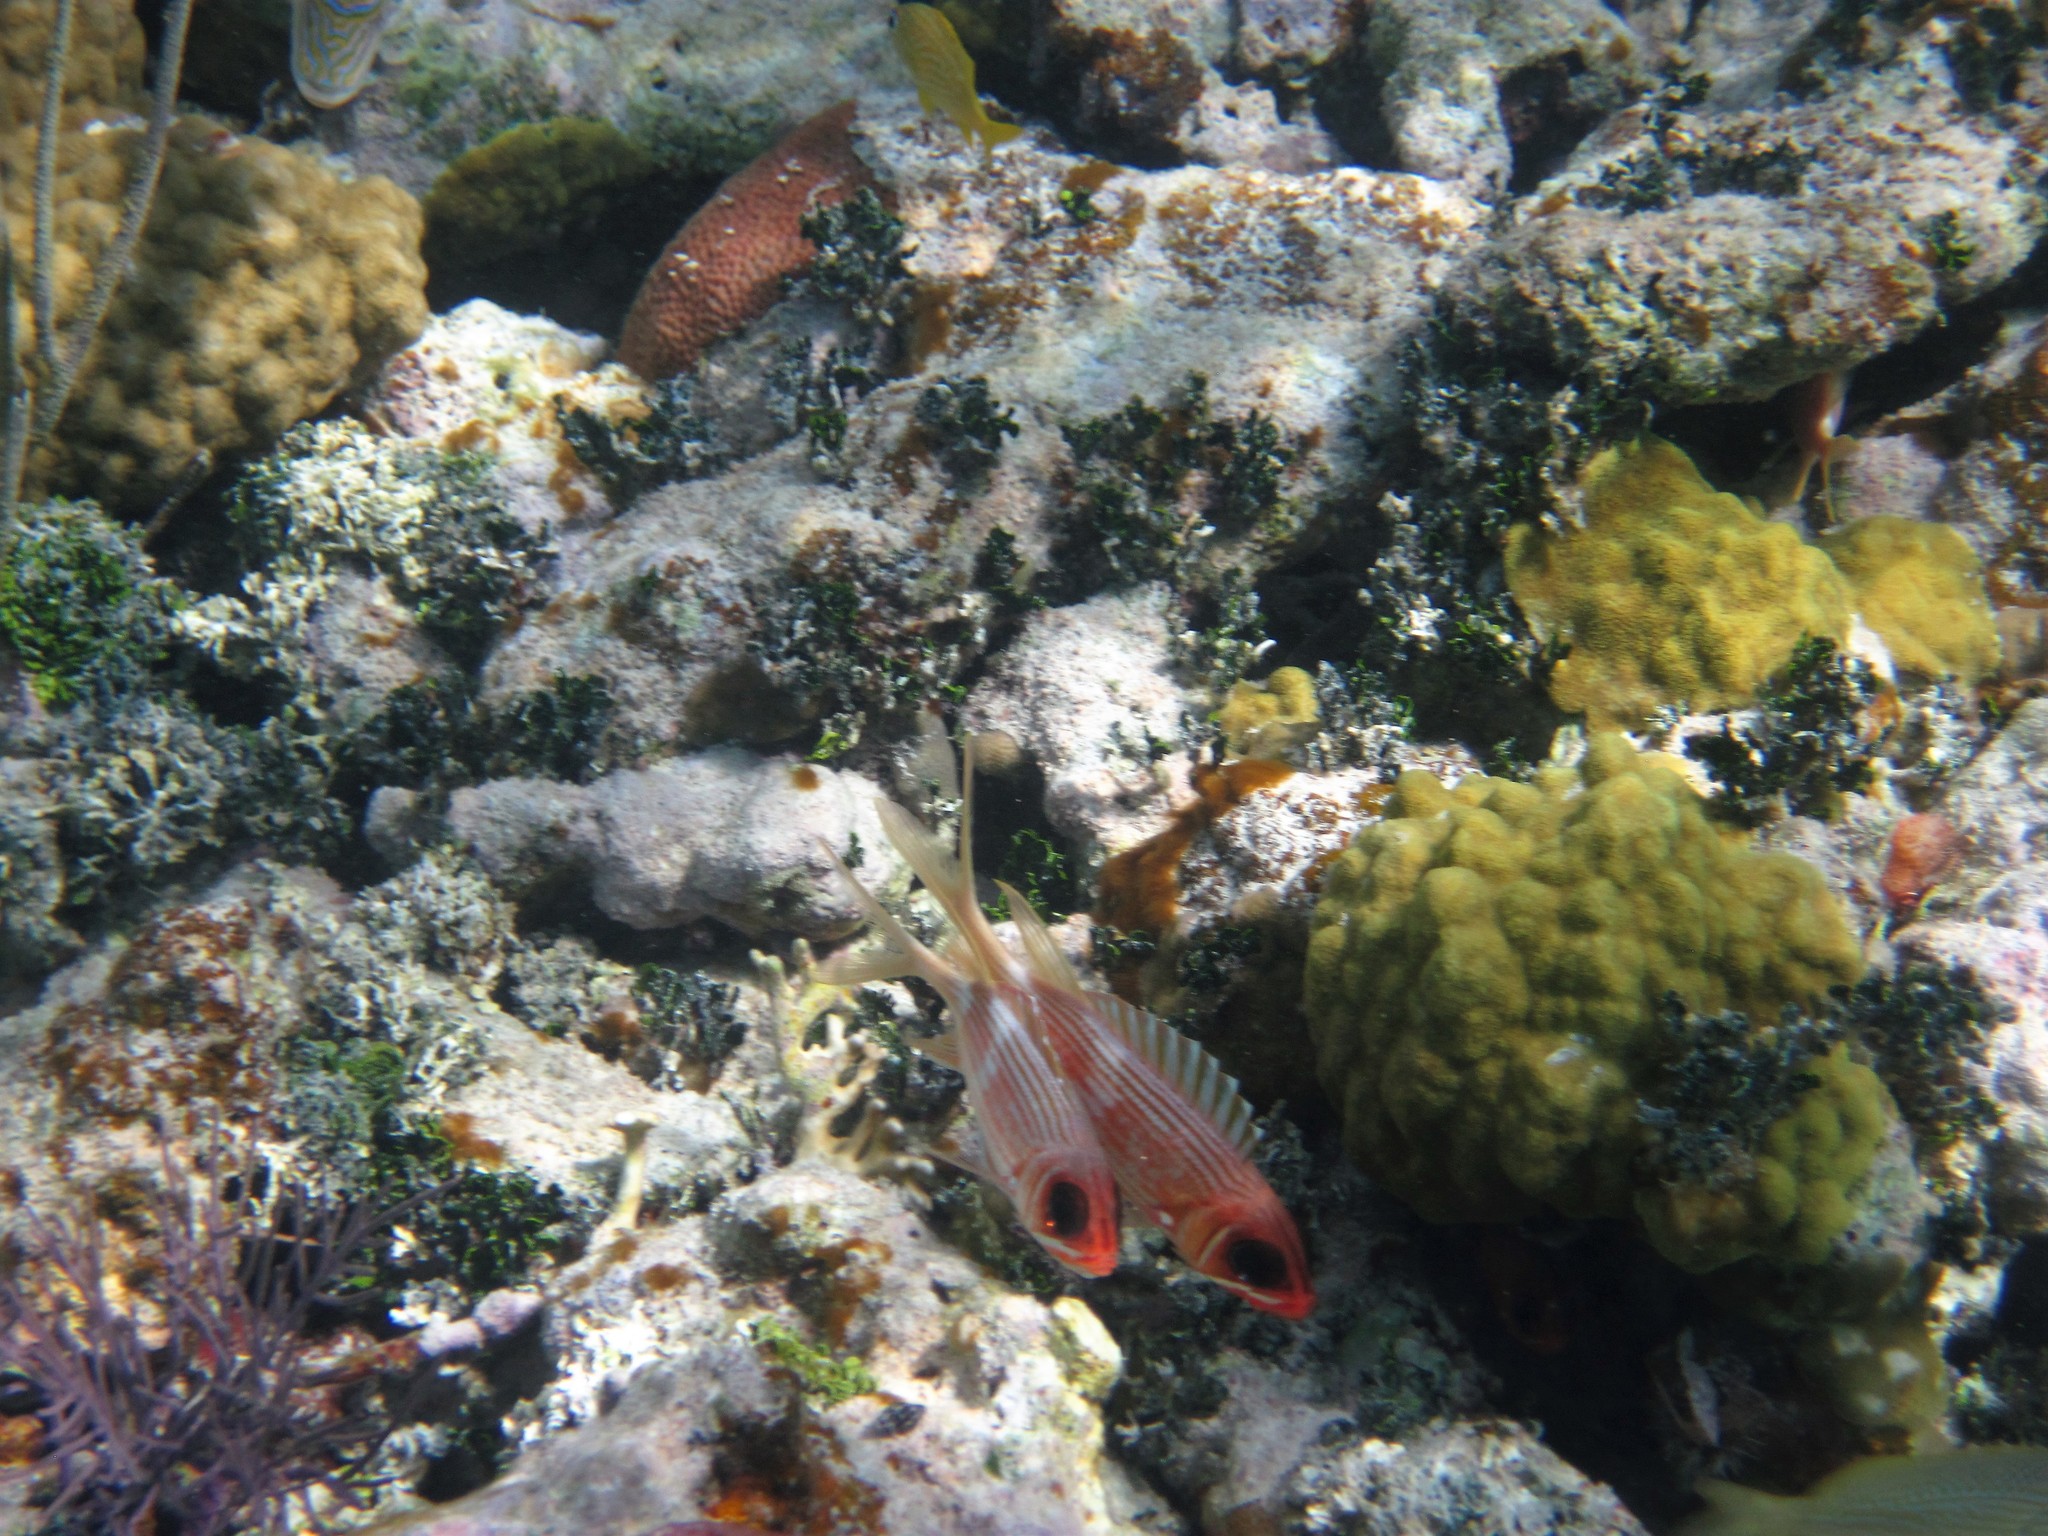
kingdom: Animalia
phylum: Chordata
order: Beryciformes
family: Holocentridae
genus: Holocentrus
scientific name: Holocentrus rufus
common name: Longspine squirrelfish
